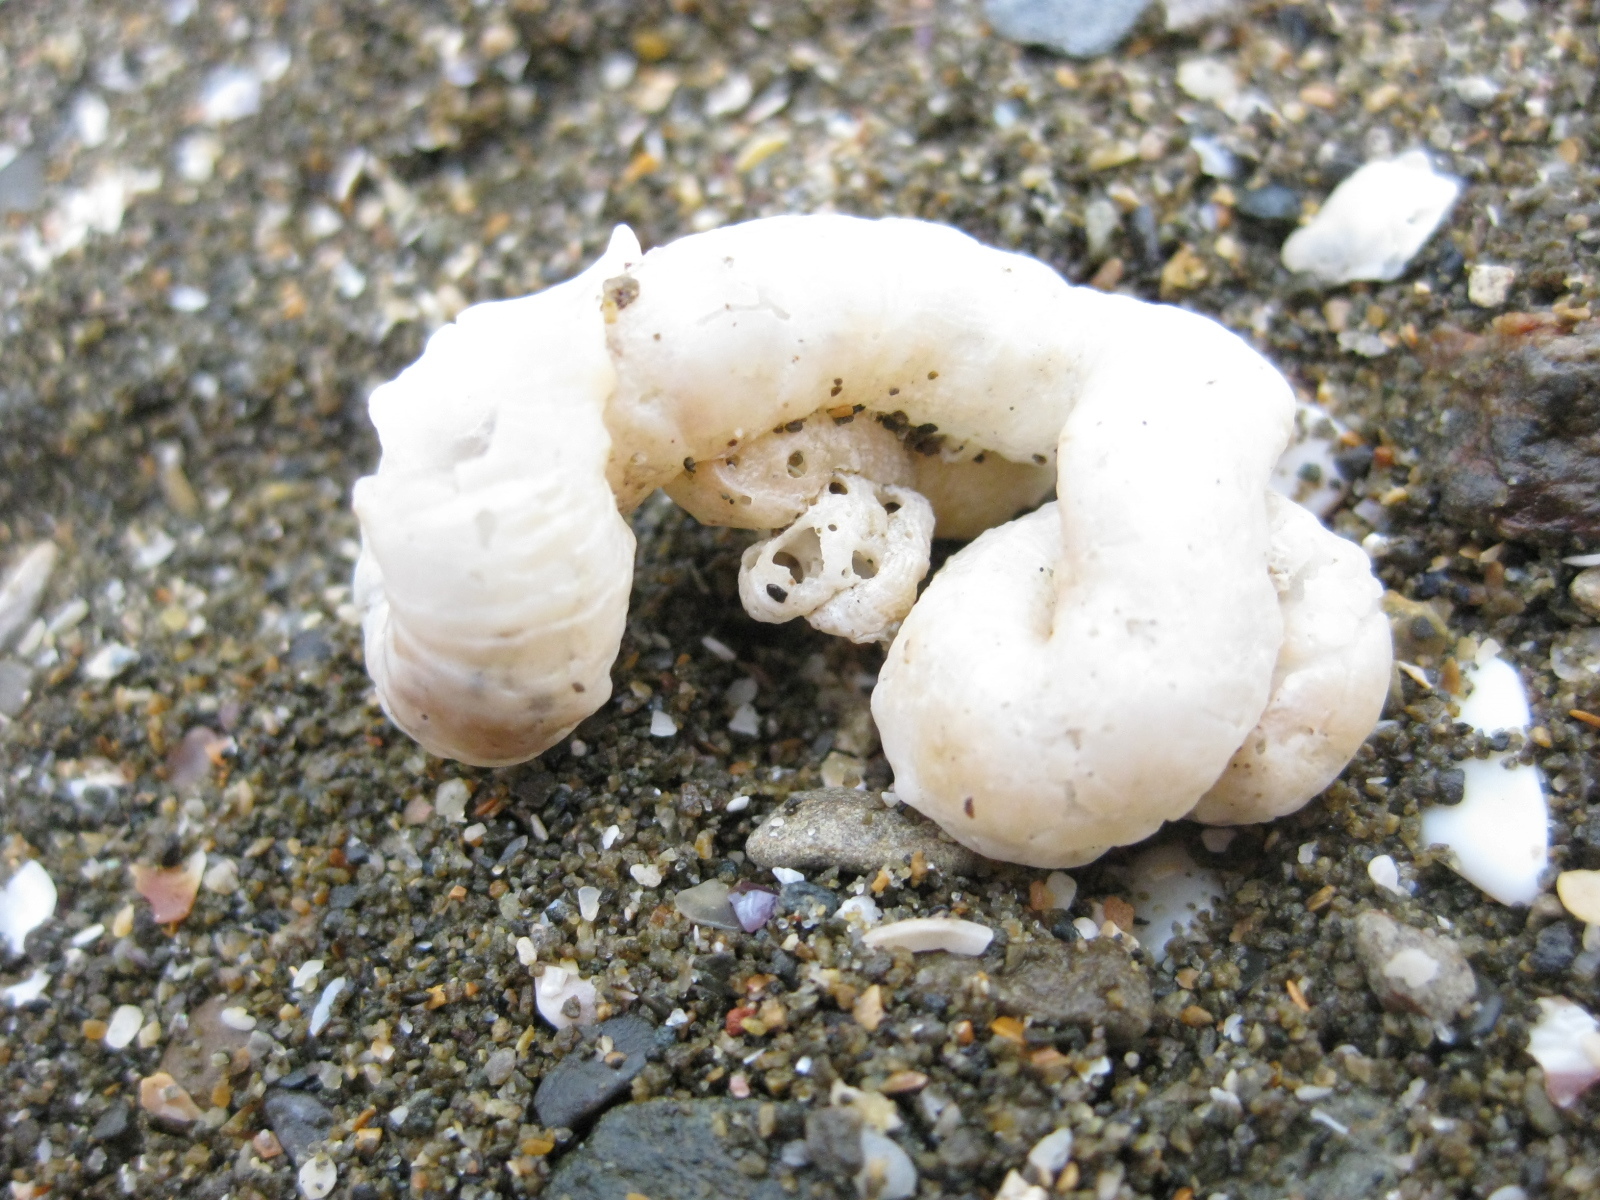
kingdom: Animalia
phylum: Mollusca
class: Gastropoda
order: Littorinimorpha
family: Vermetidae
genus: Thylacodes
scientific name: Thylacodes zelandicus
